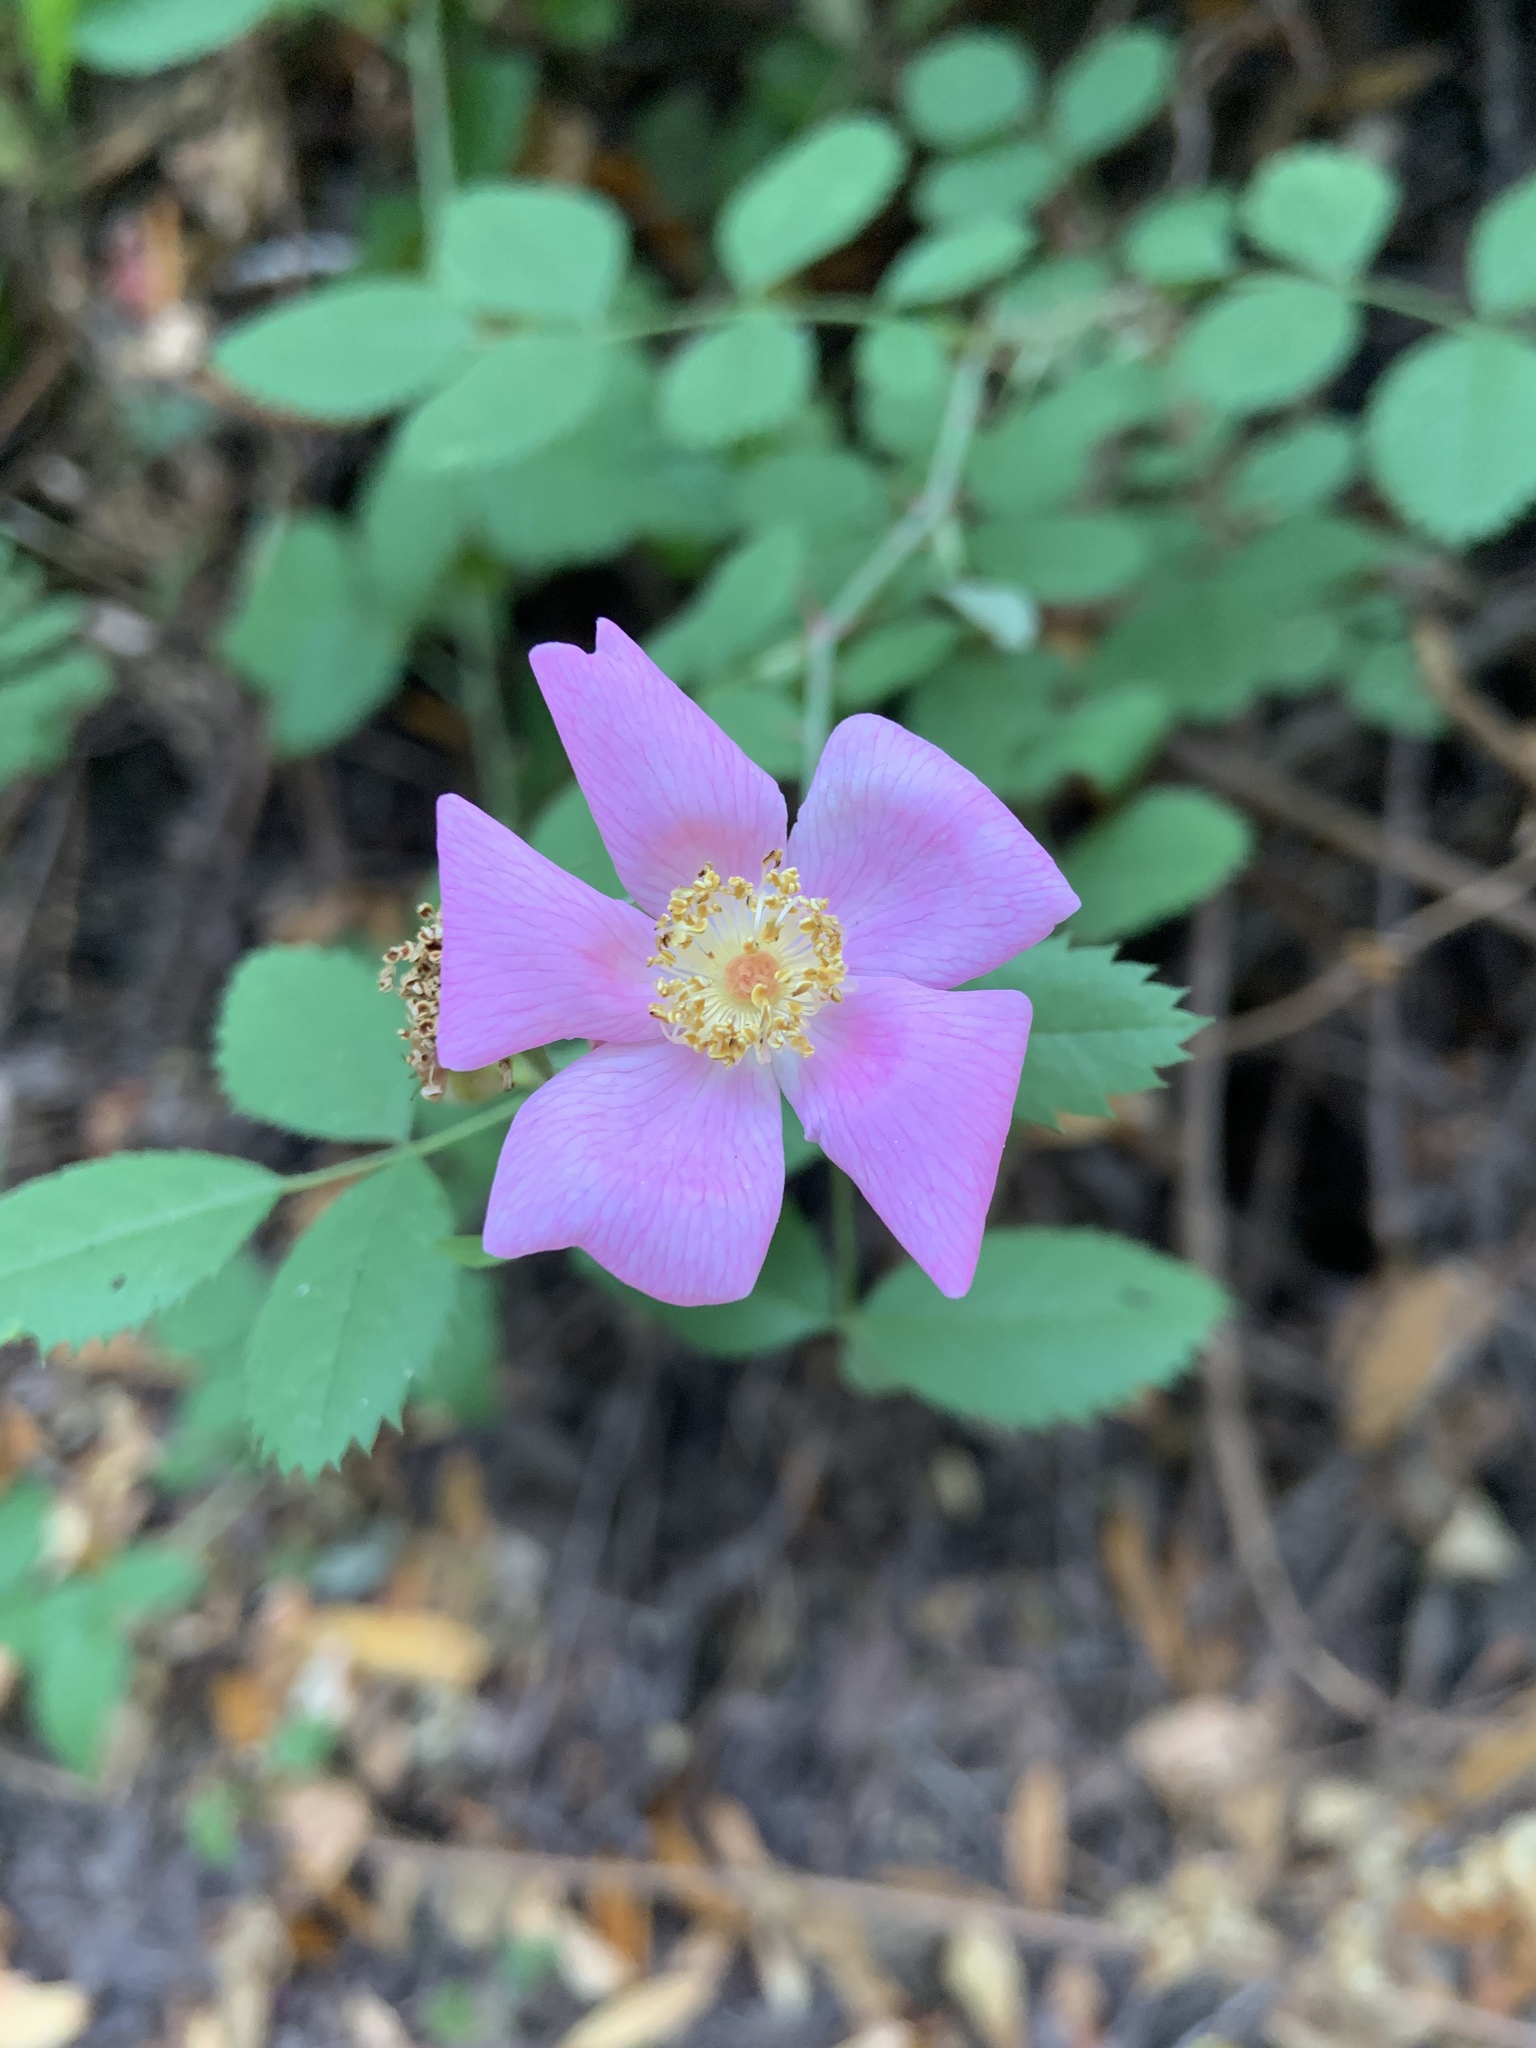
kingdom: Plantae
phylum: Tracheophyta
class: Magnoliopsida
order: Rosales
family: Rosaceae
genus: Rosa
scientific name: Rosa californica
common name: California rose
